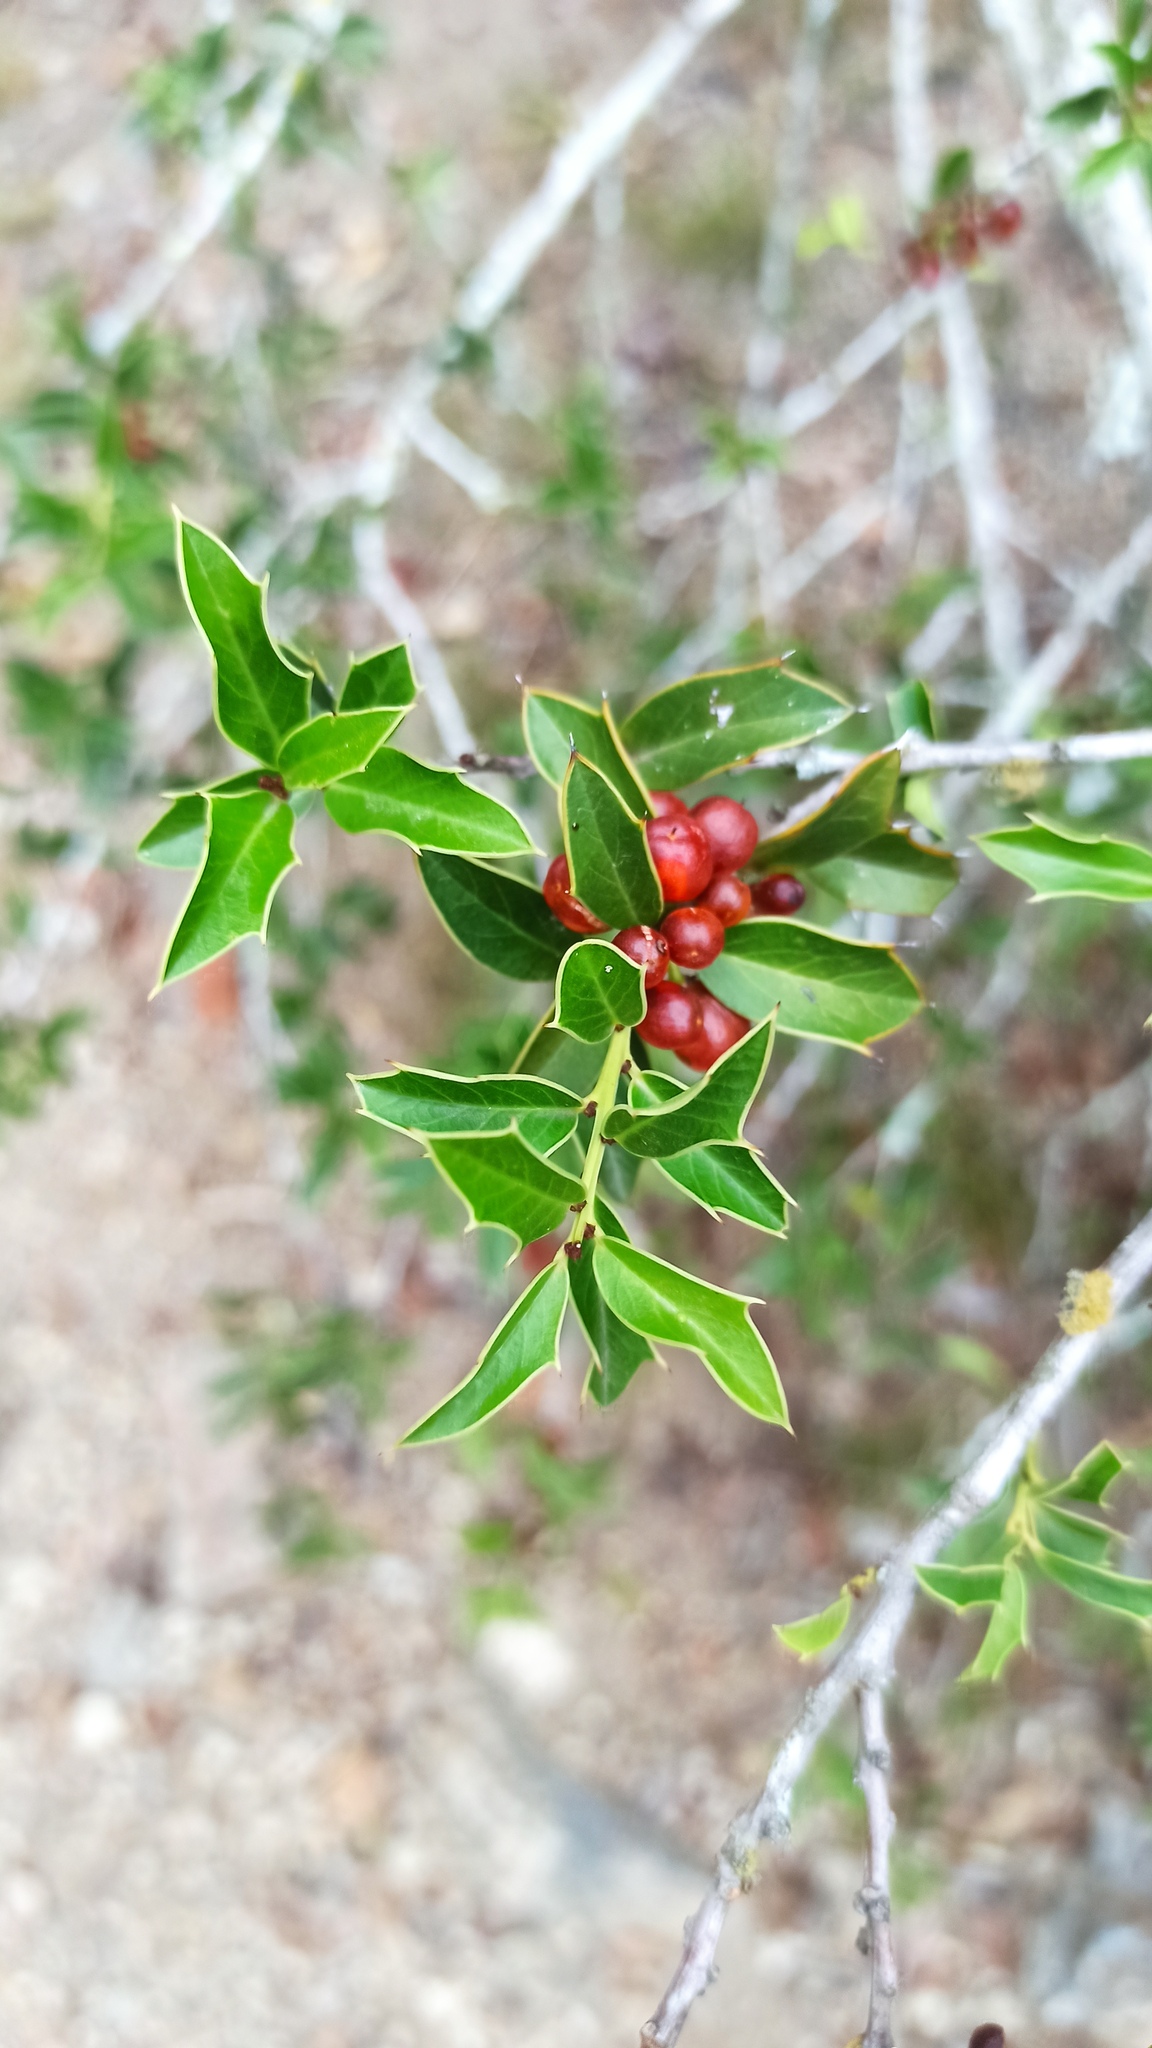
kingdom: Plantae
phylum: Tracheophyta
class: Magnoliopsida
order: Celastrales
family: Celastraceae
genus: Monteverdia
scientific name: Monteverdia
